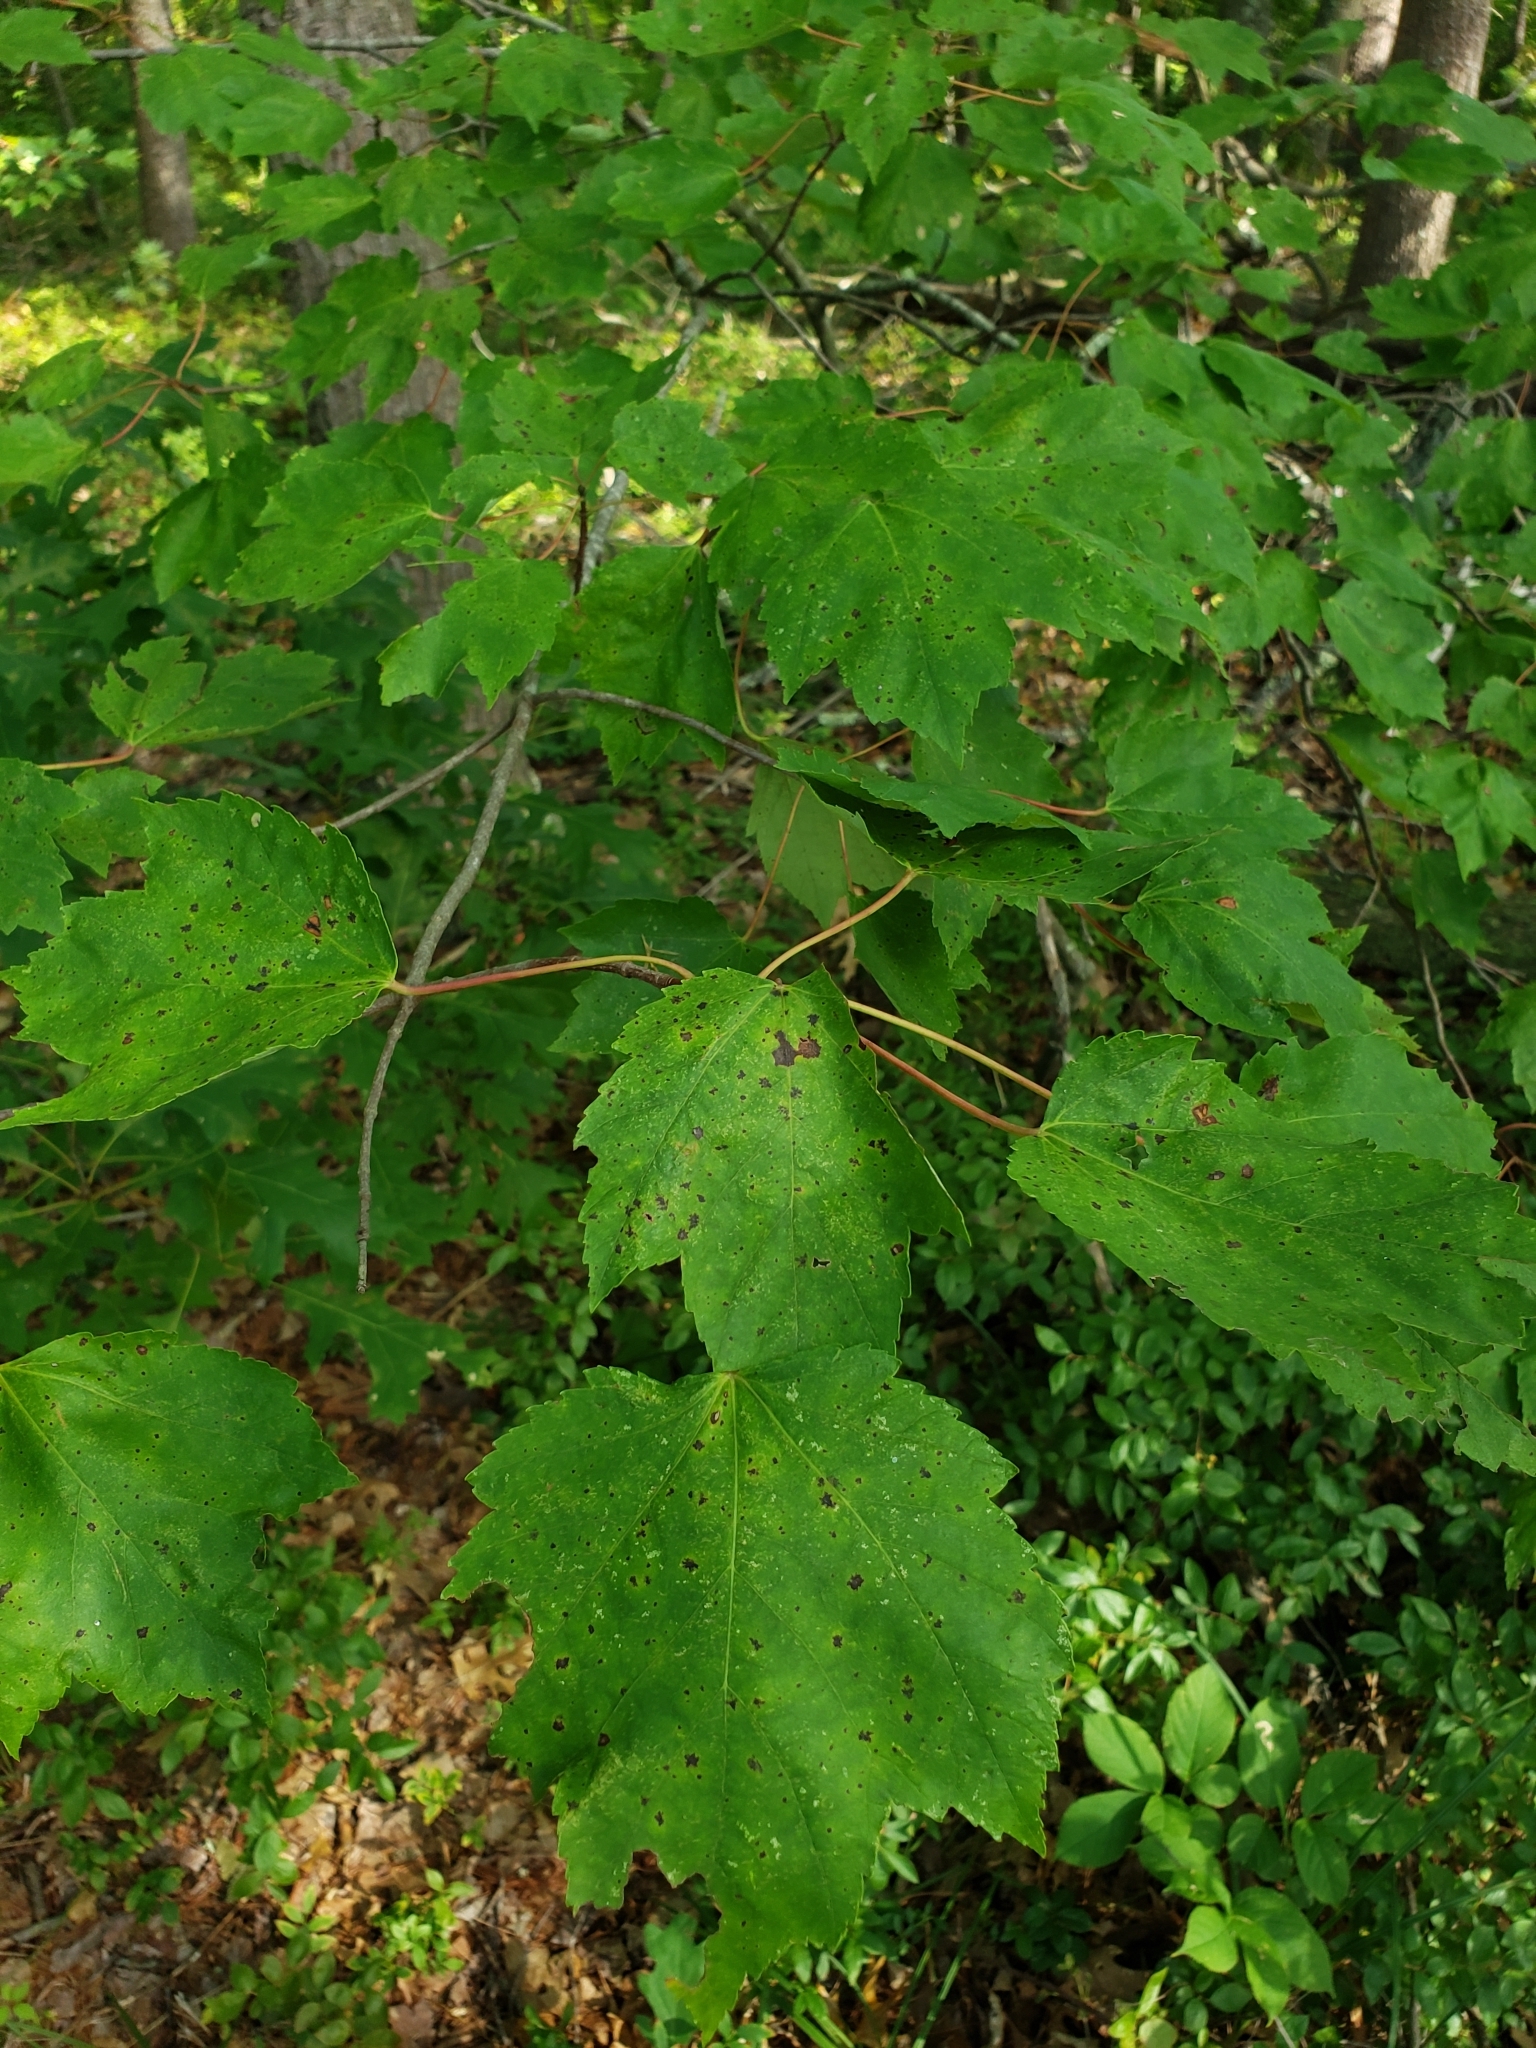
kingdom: Plantae
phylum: Tracheophyta
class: Magnoliopsida
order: Sapindales
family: Sapindaceae
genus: Acer
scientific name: Acer rubrum
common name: Red maple
